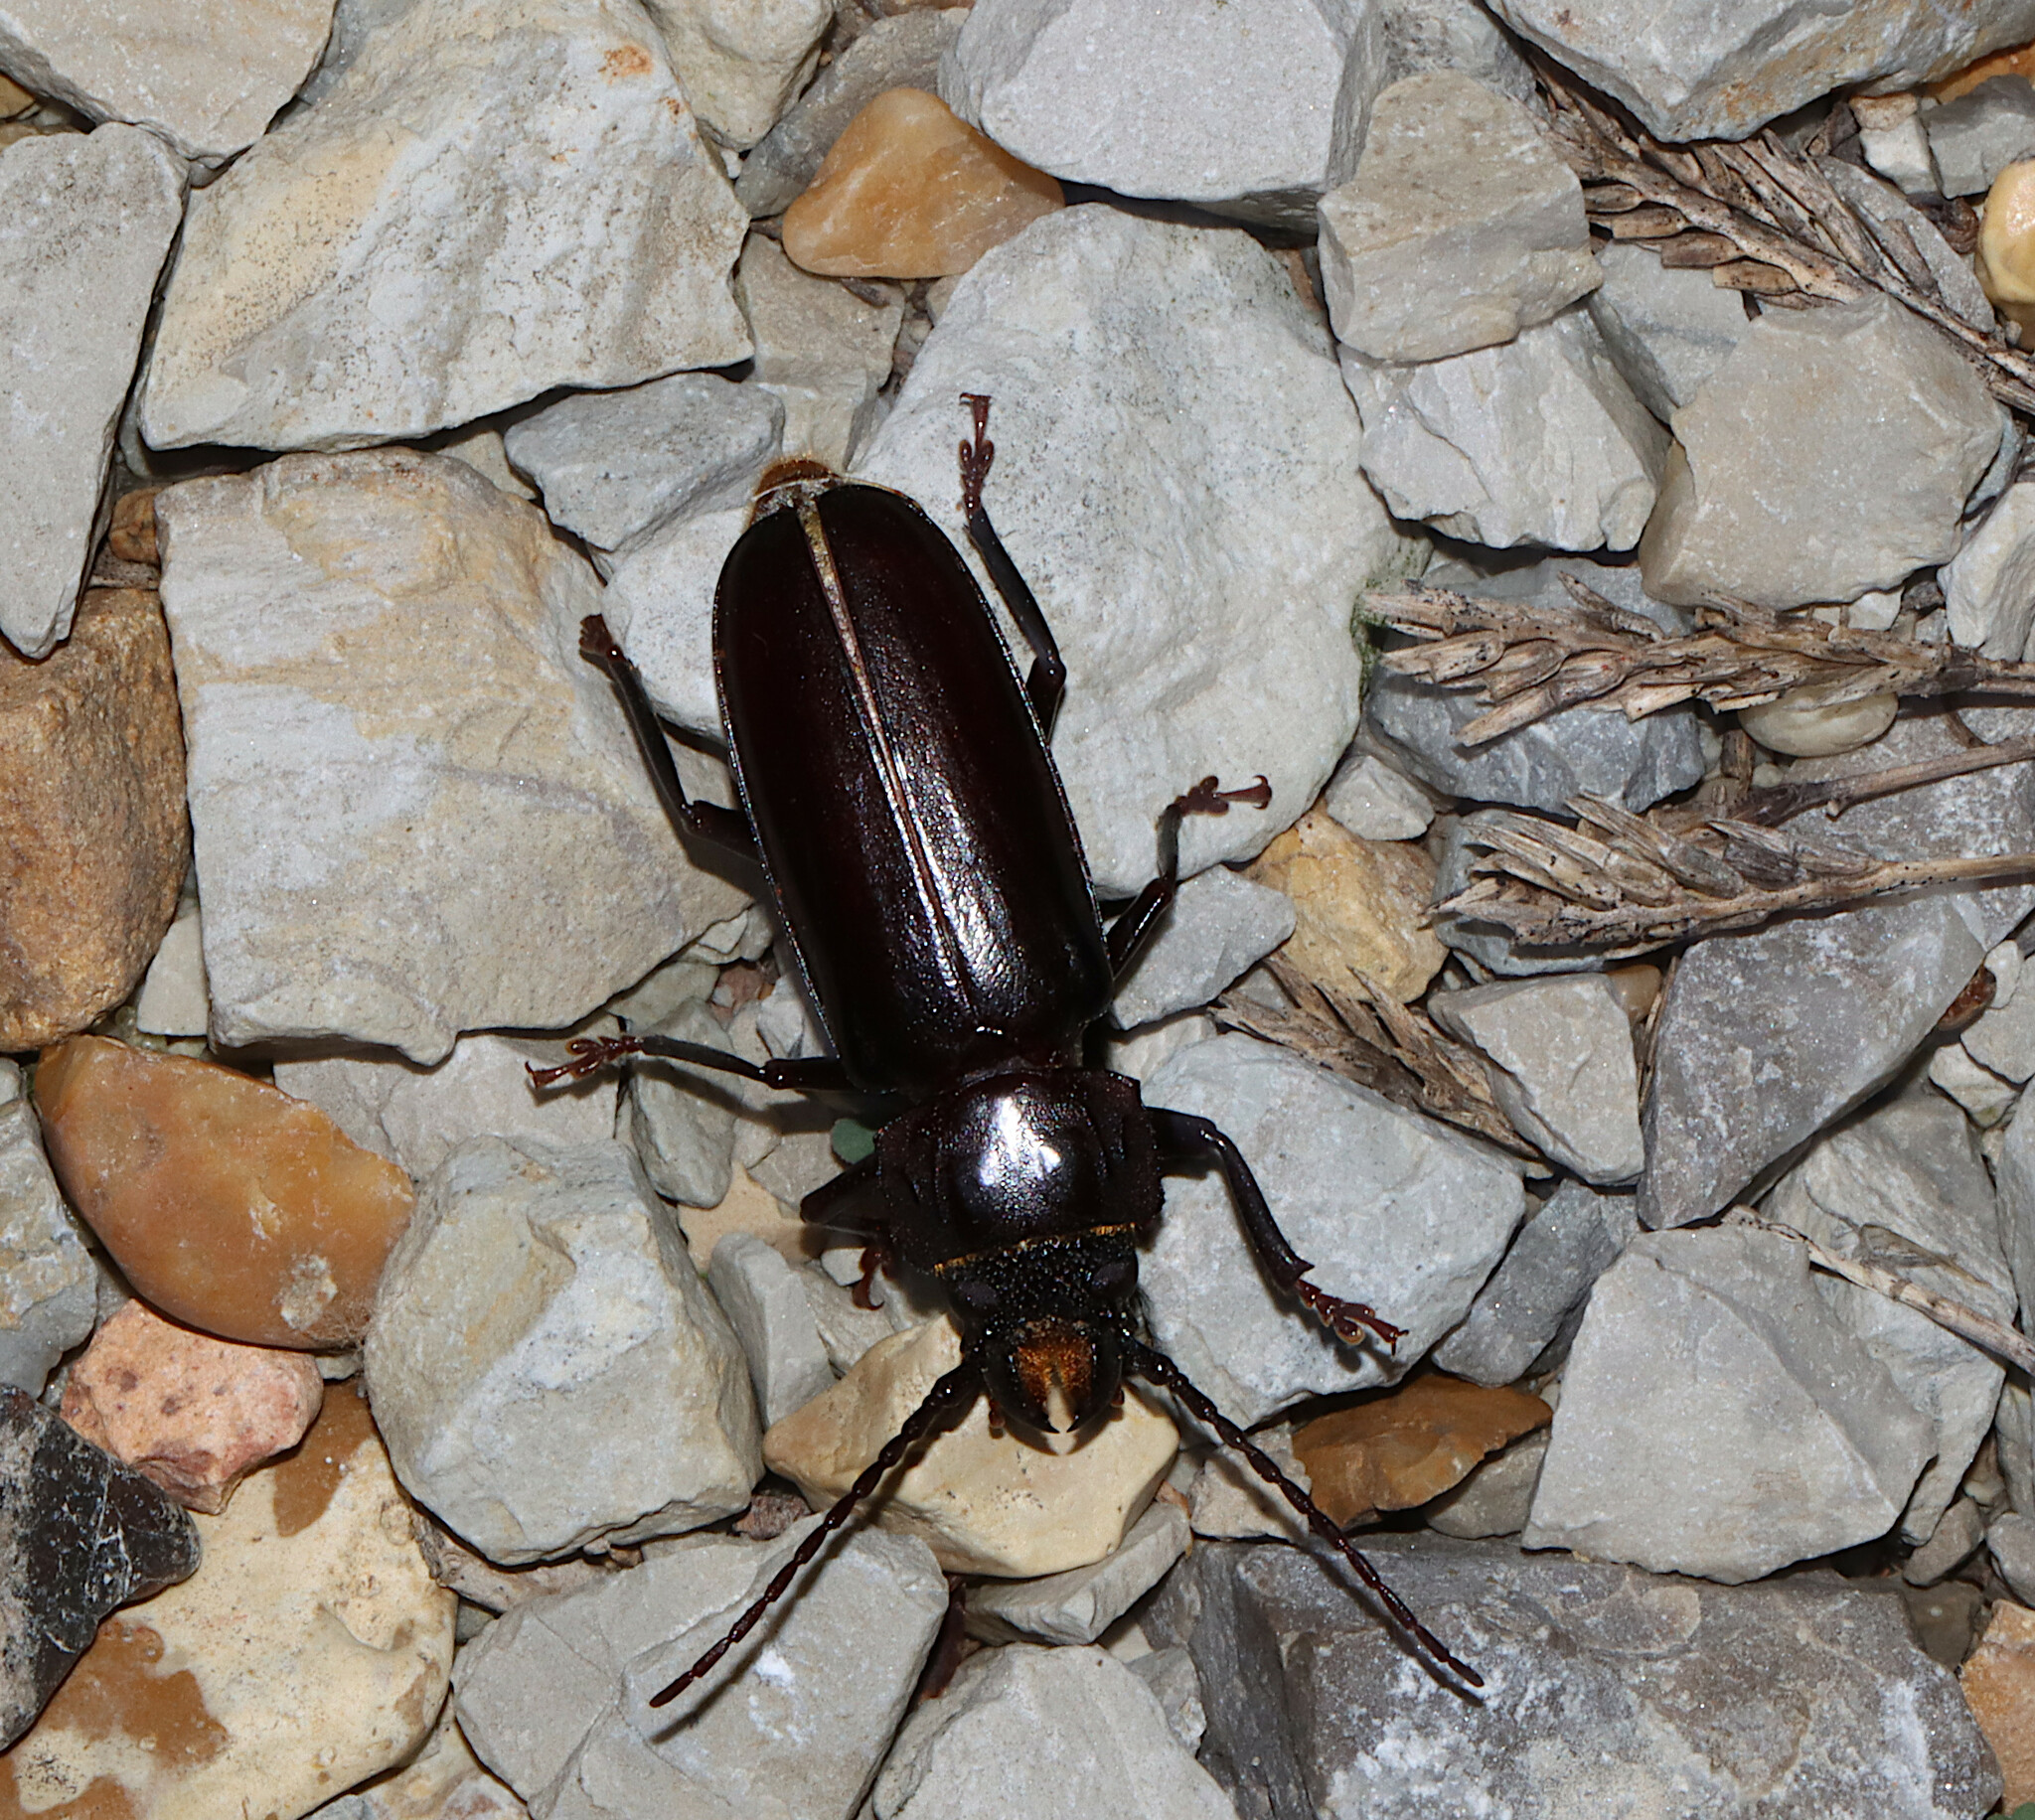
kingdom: Animalia
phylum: Arthropoda
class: Insecta
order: Coleoptera
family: Cerambycidae
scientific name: Cerambycidae
